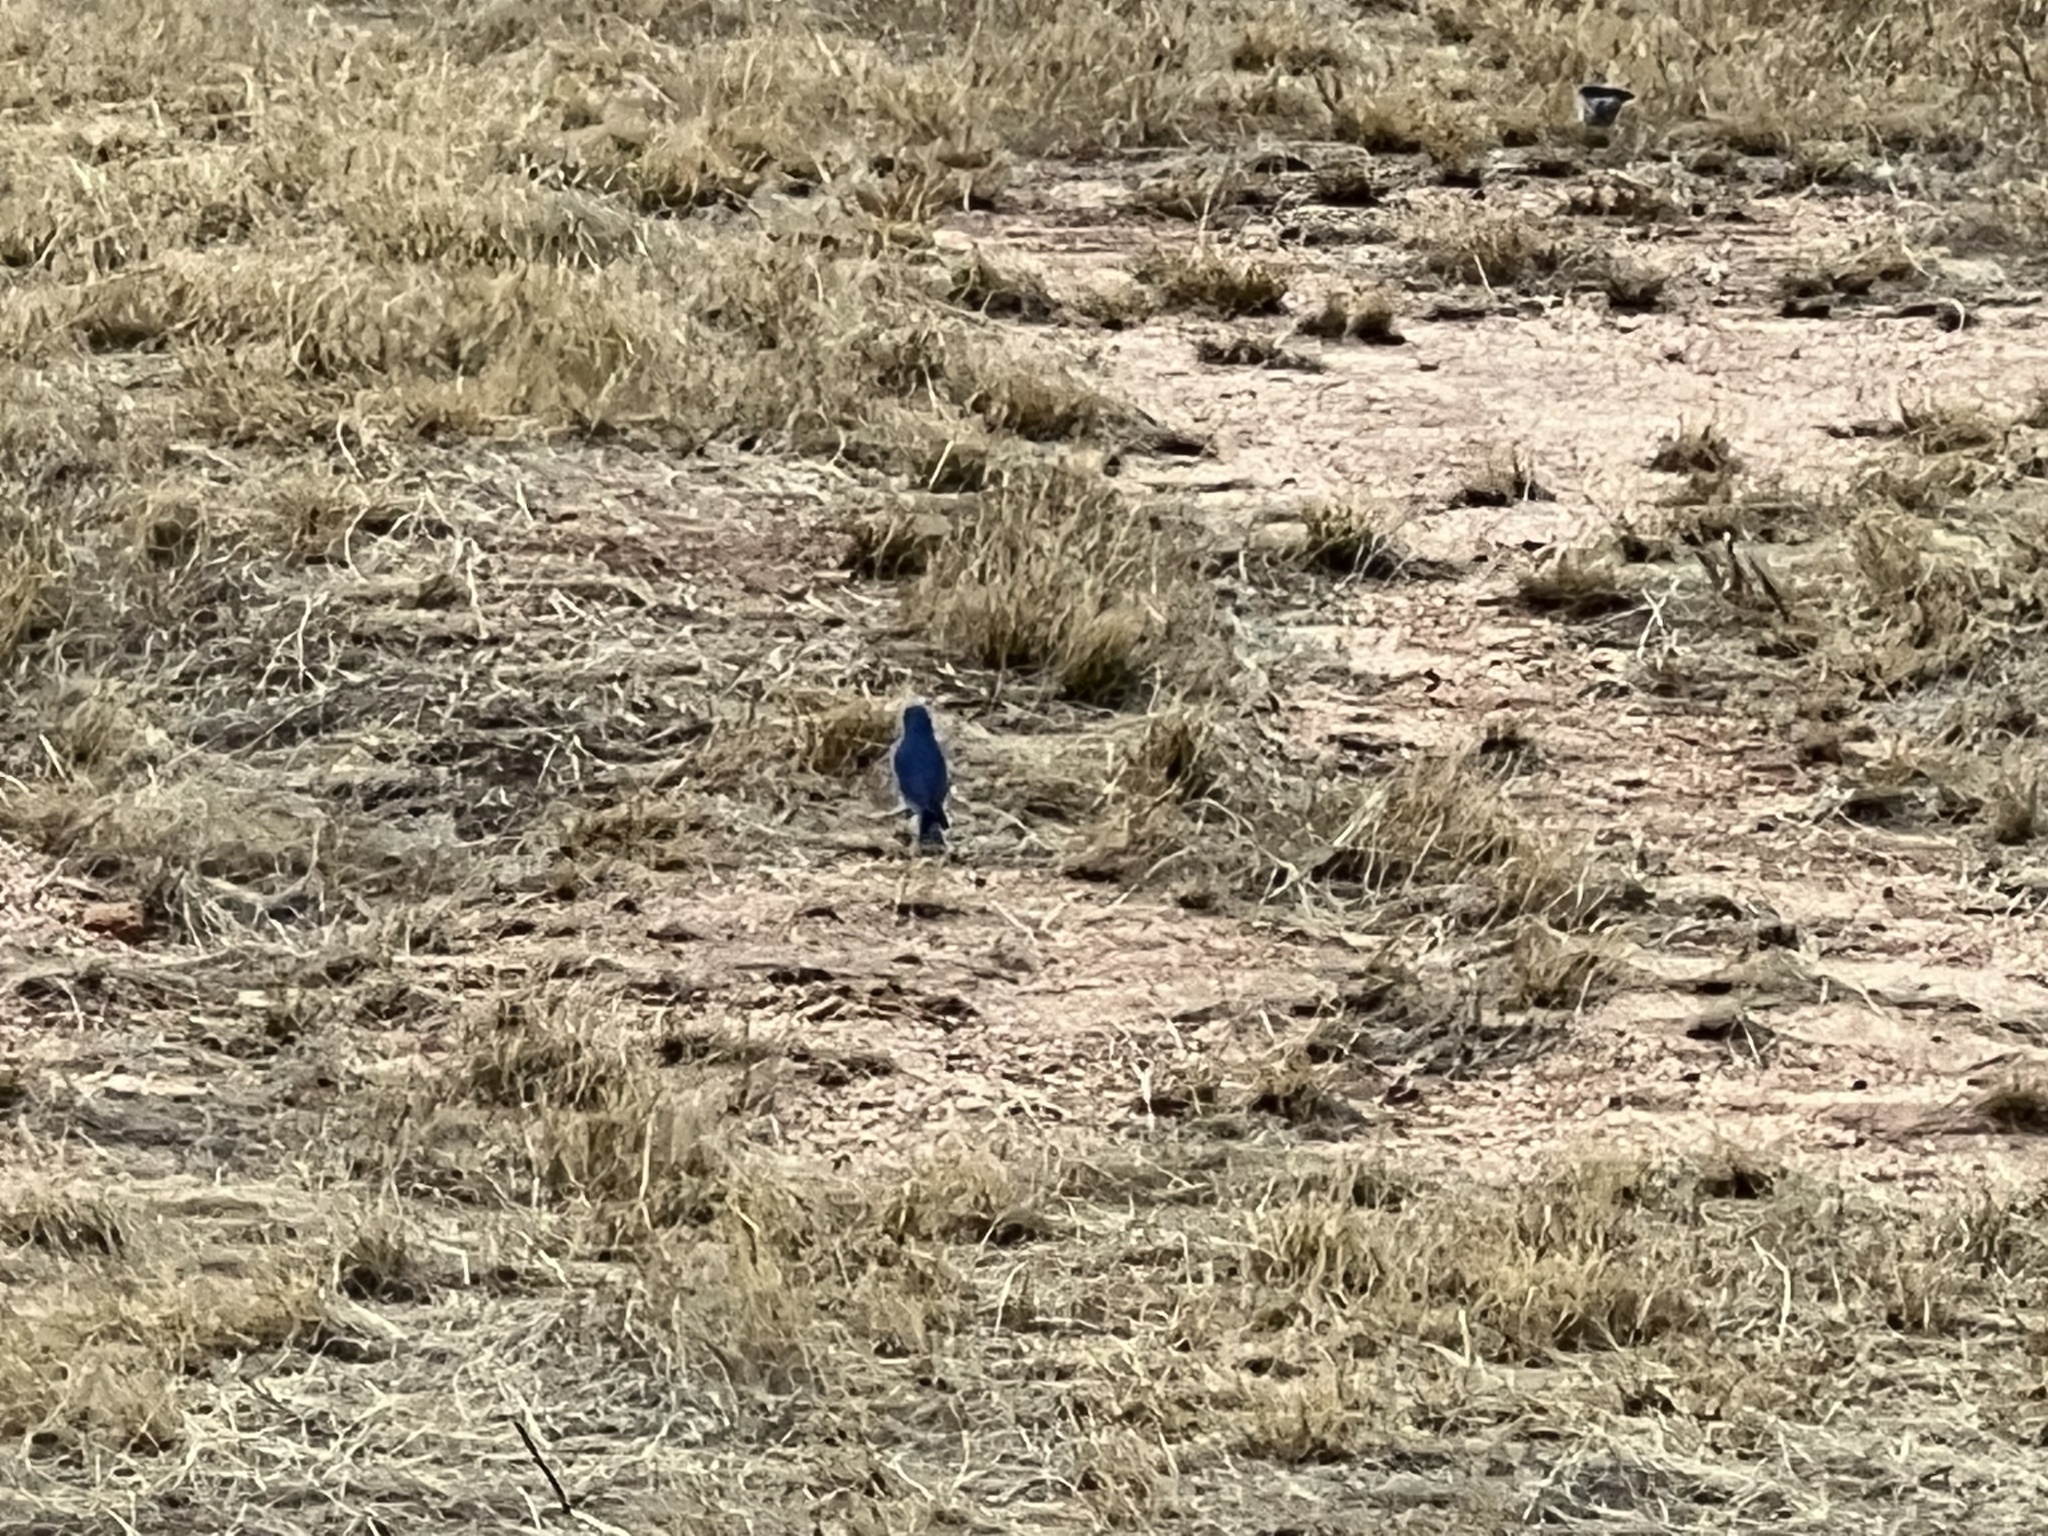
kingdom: Animalia
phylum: Chordata
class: Aves
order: Passeriformes
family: Turdidae
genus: Sialia
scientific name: Sialia currucoides
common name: Mountain bluebird
